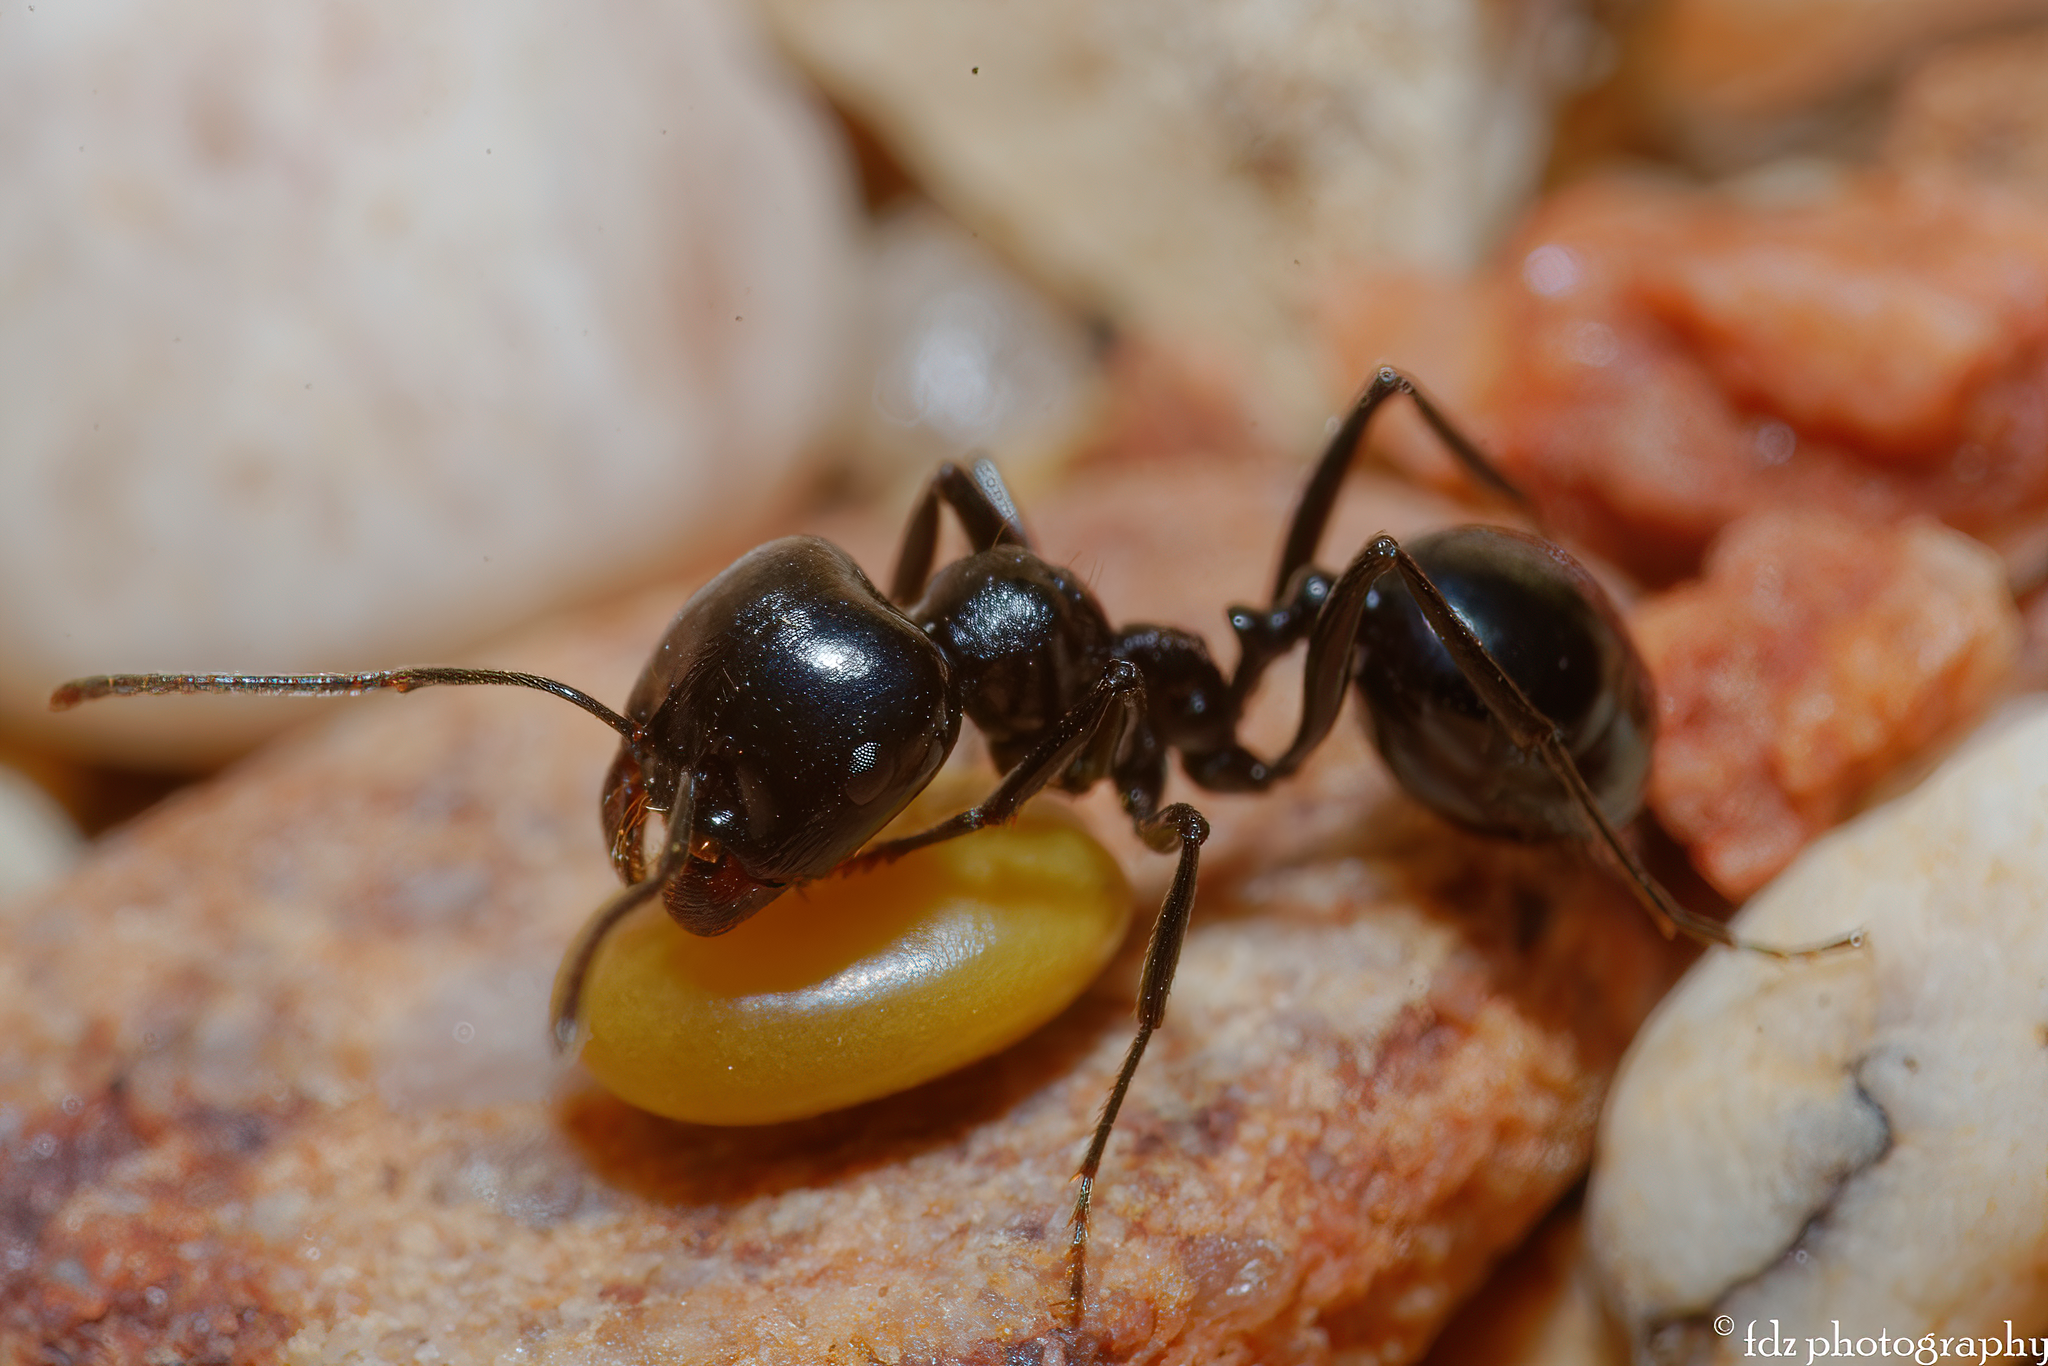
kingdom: Animalia
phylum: Arthropoda
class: Insecta
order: Hymenoptera
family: Formicidae
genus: Messor
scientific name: Messor bouvieri
